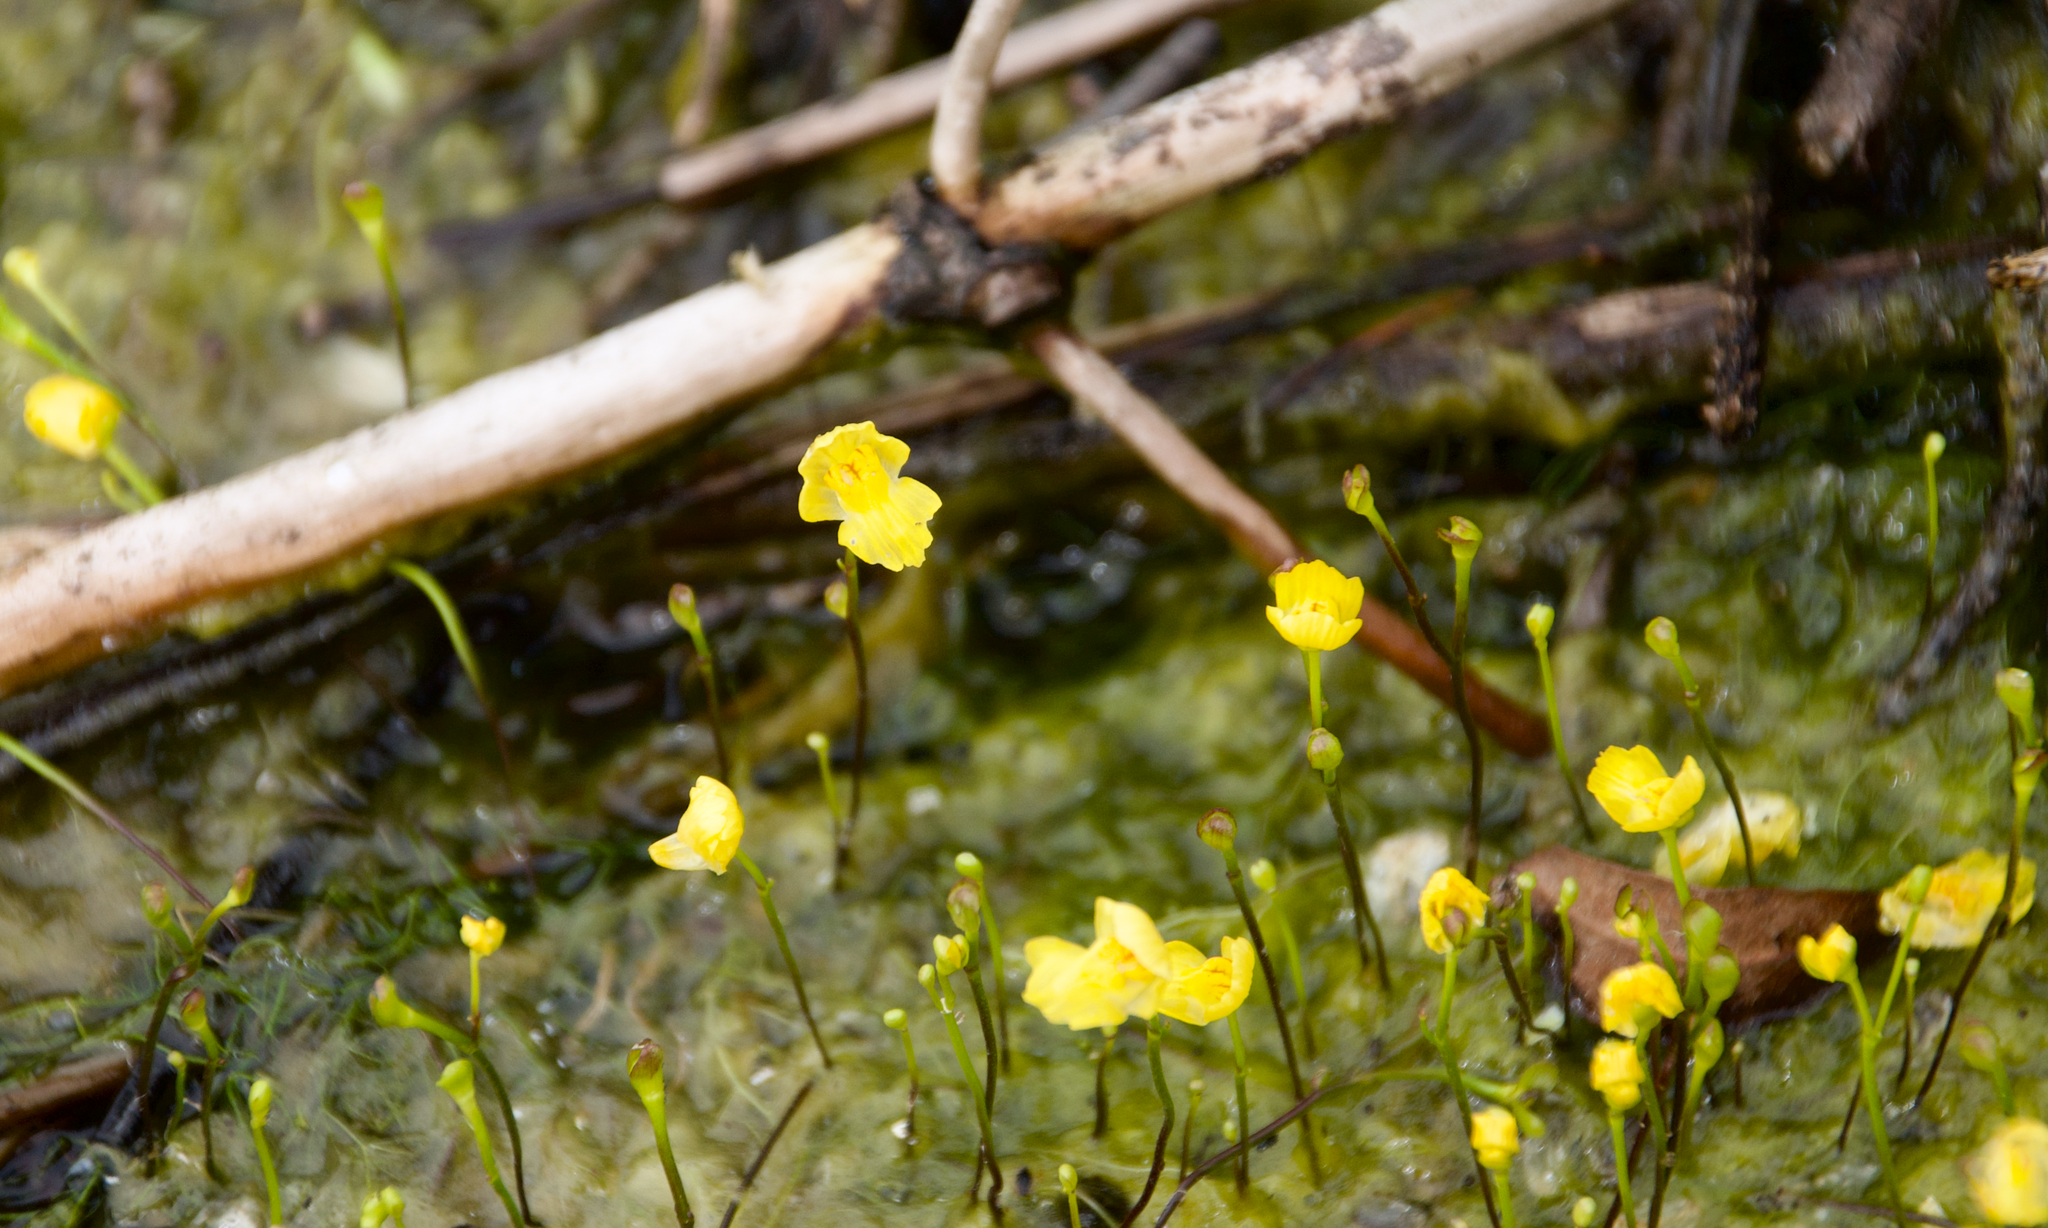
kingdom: Plantae
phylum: Tracheophyta
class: Magnoliopsida
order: Lamiales
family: Lentibulariaceae
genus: Utricularia
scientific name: Utricularia gibba
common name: Humped bladderwort
